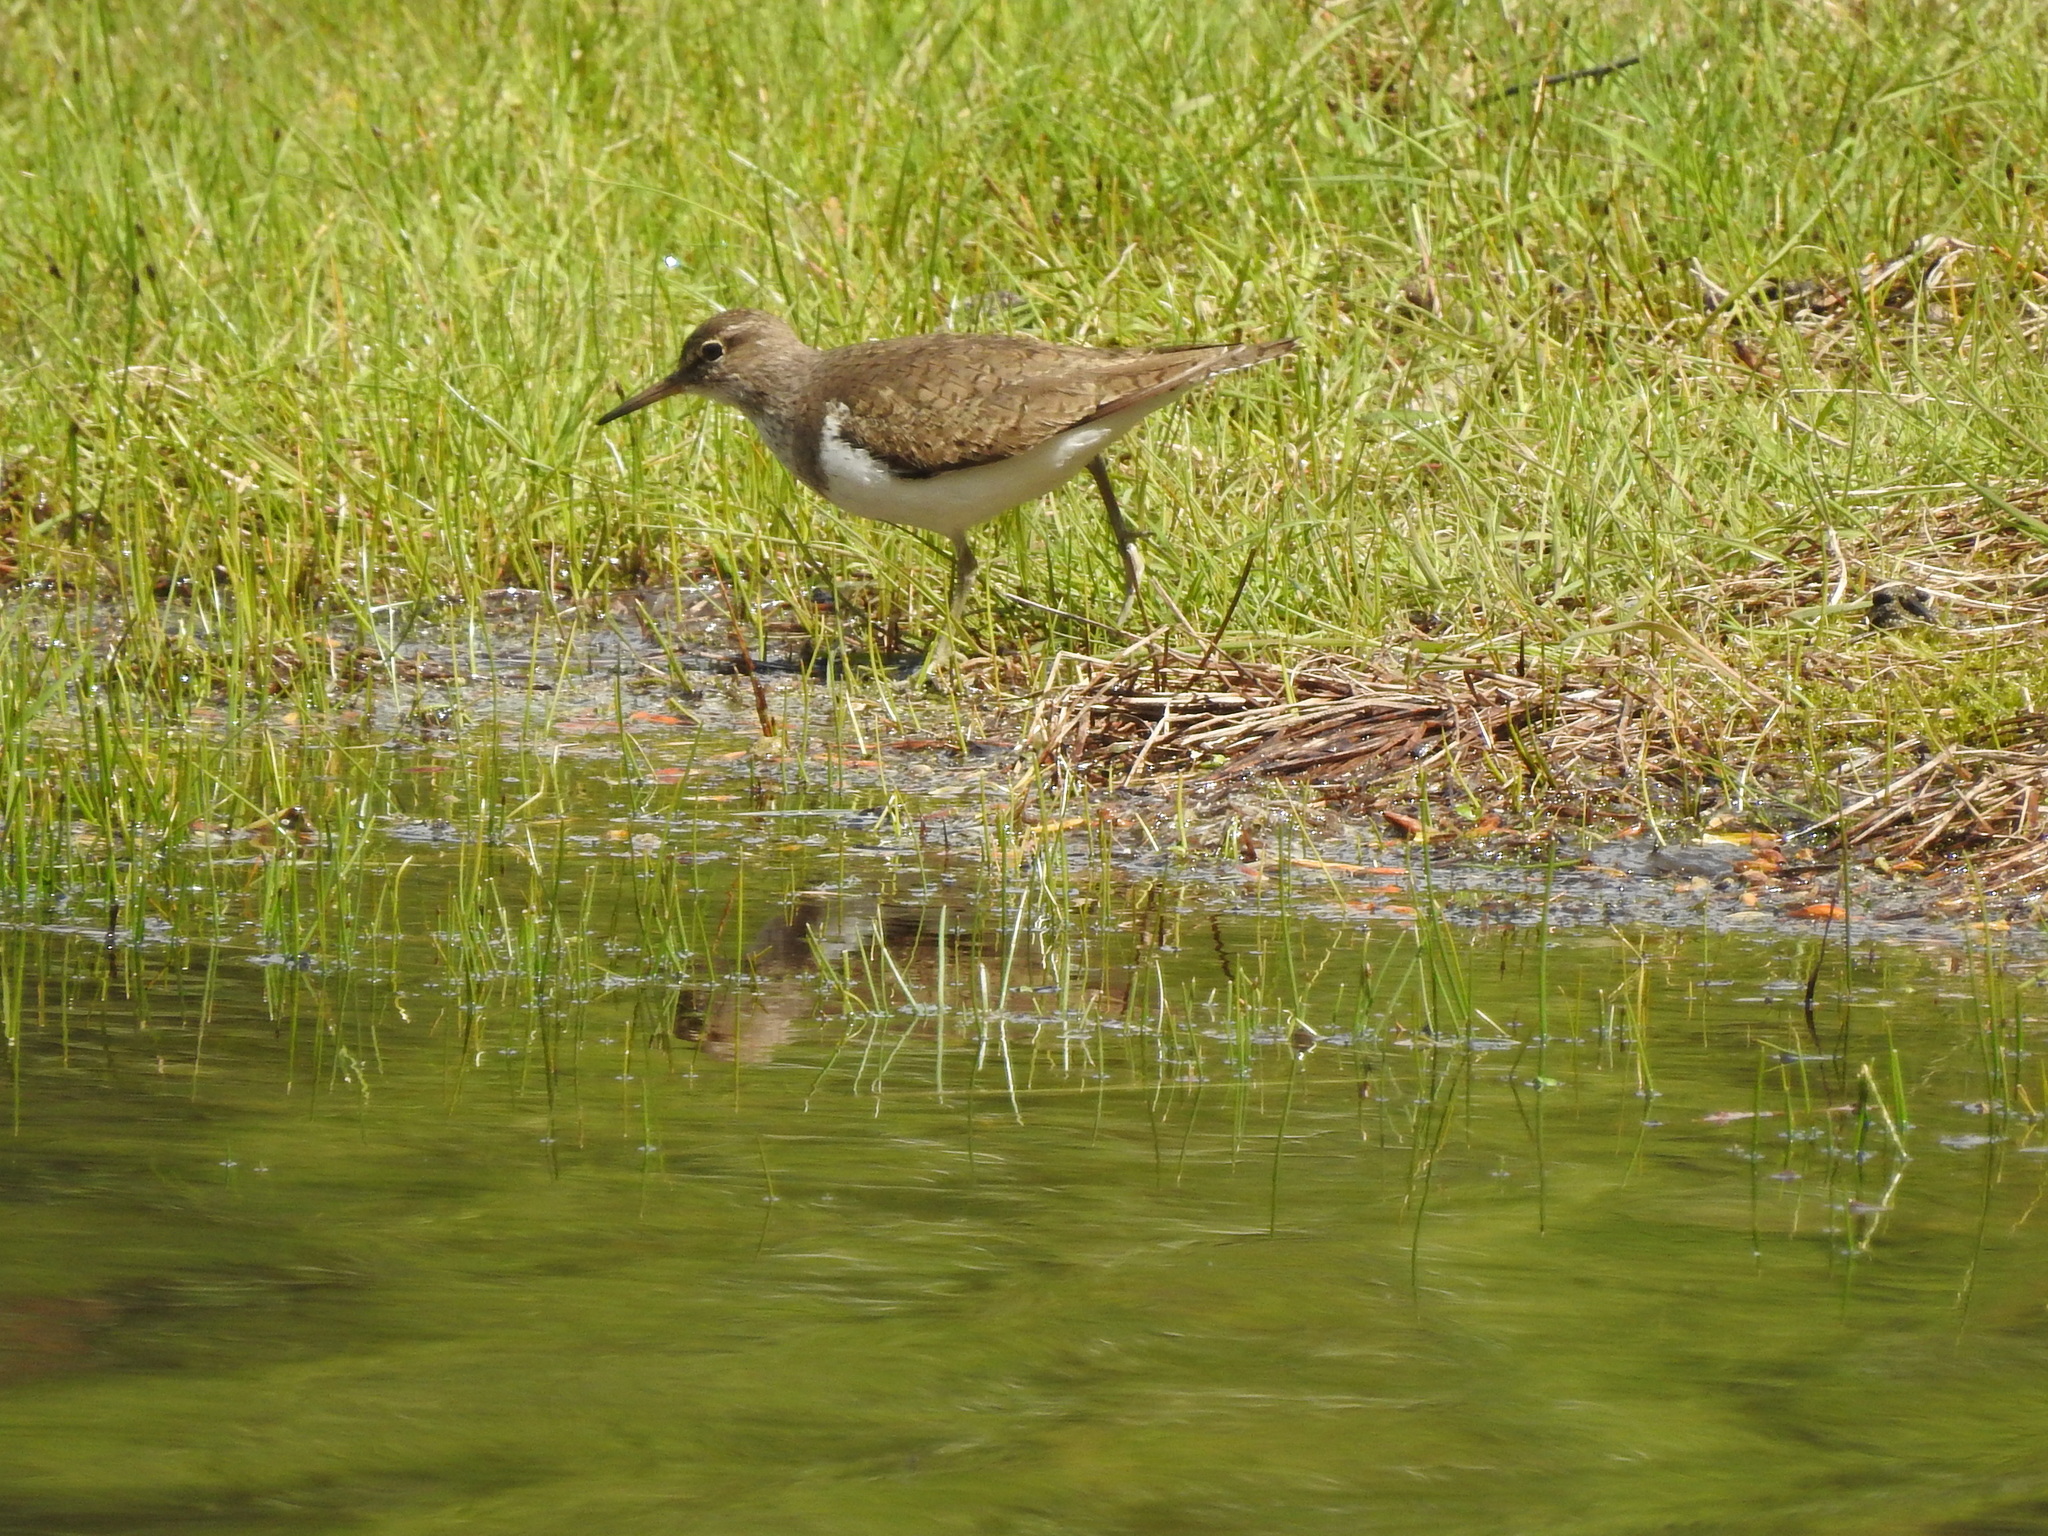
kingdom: Animalia
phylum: Chordata
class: Aves
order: Charadriiformes
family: Scolopacidae
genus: Actitis
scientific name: Actitis hypoleucos
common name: Common sandpiper
